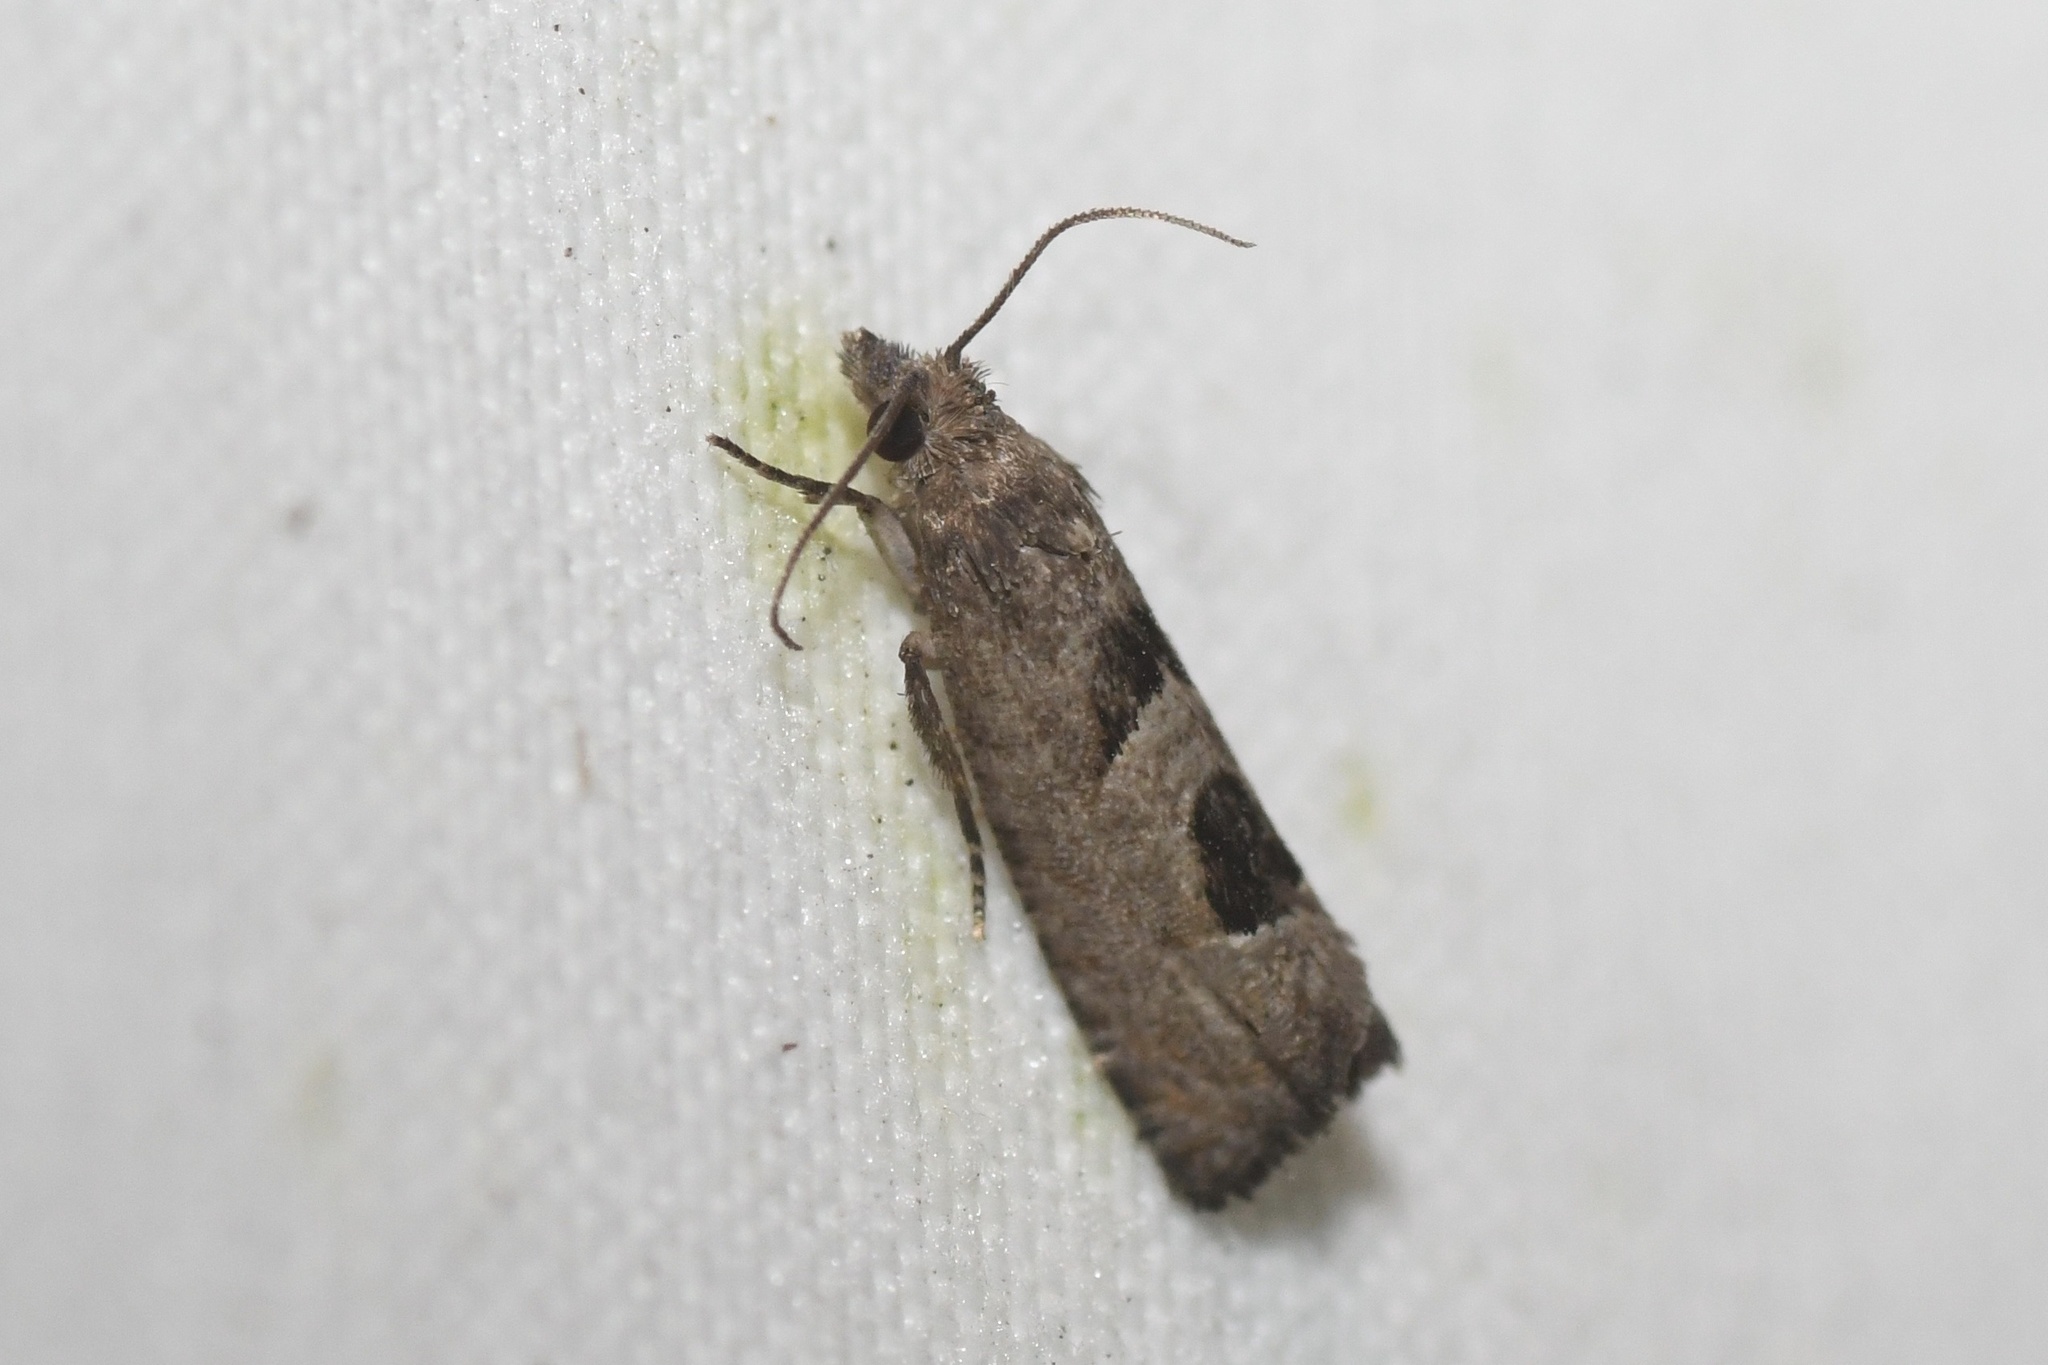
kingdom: Animalia
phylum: Arthropoda
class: Insecta
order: Lepidoptera
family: Tortricidae
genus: Eucosma
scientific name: Eucosma tomonana
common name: Aster-head eucosma moth
